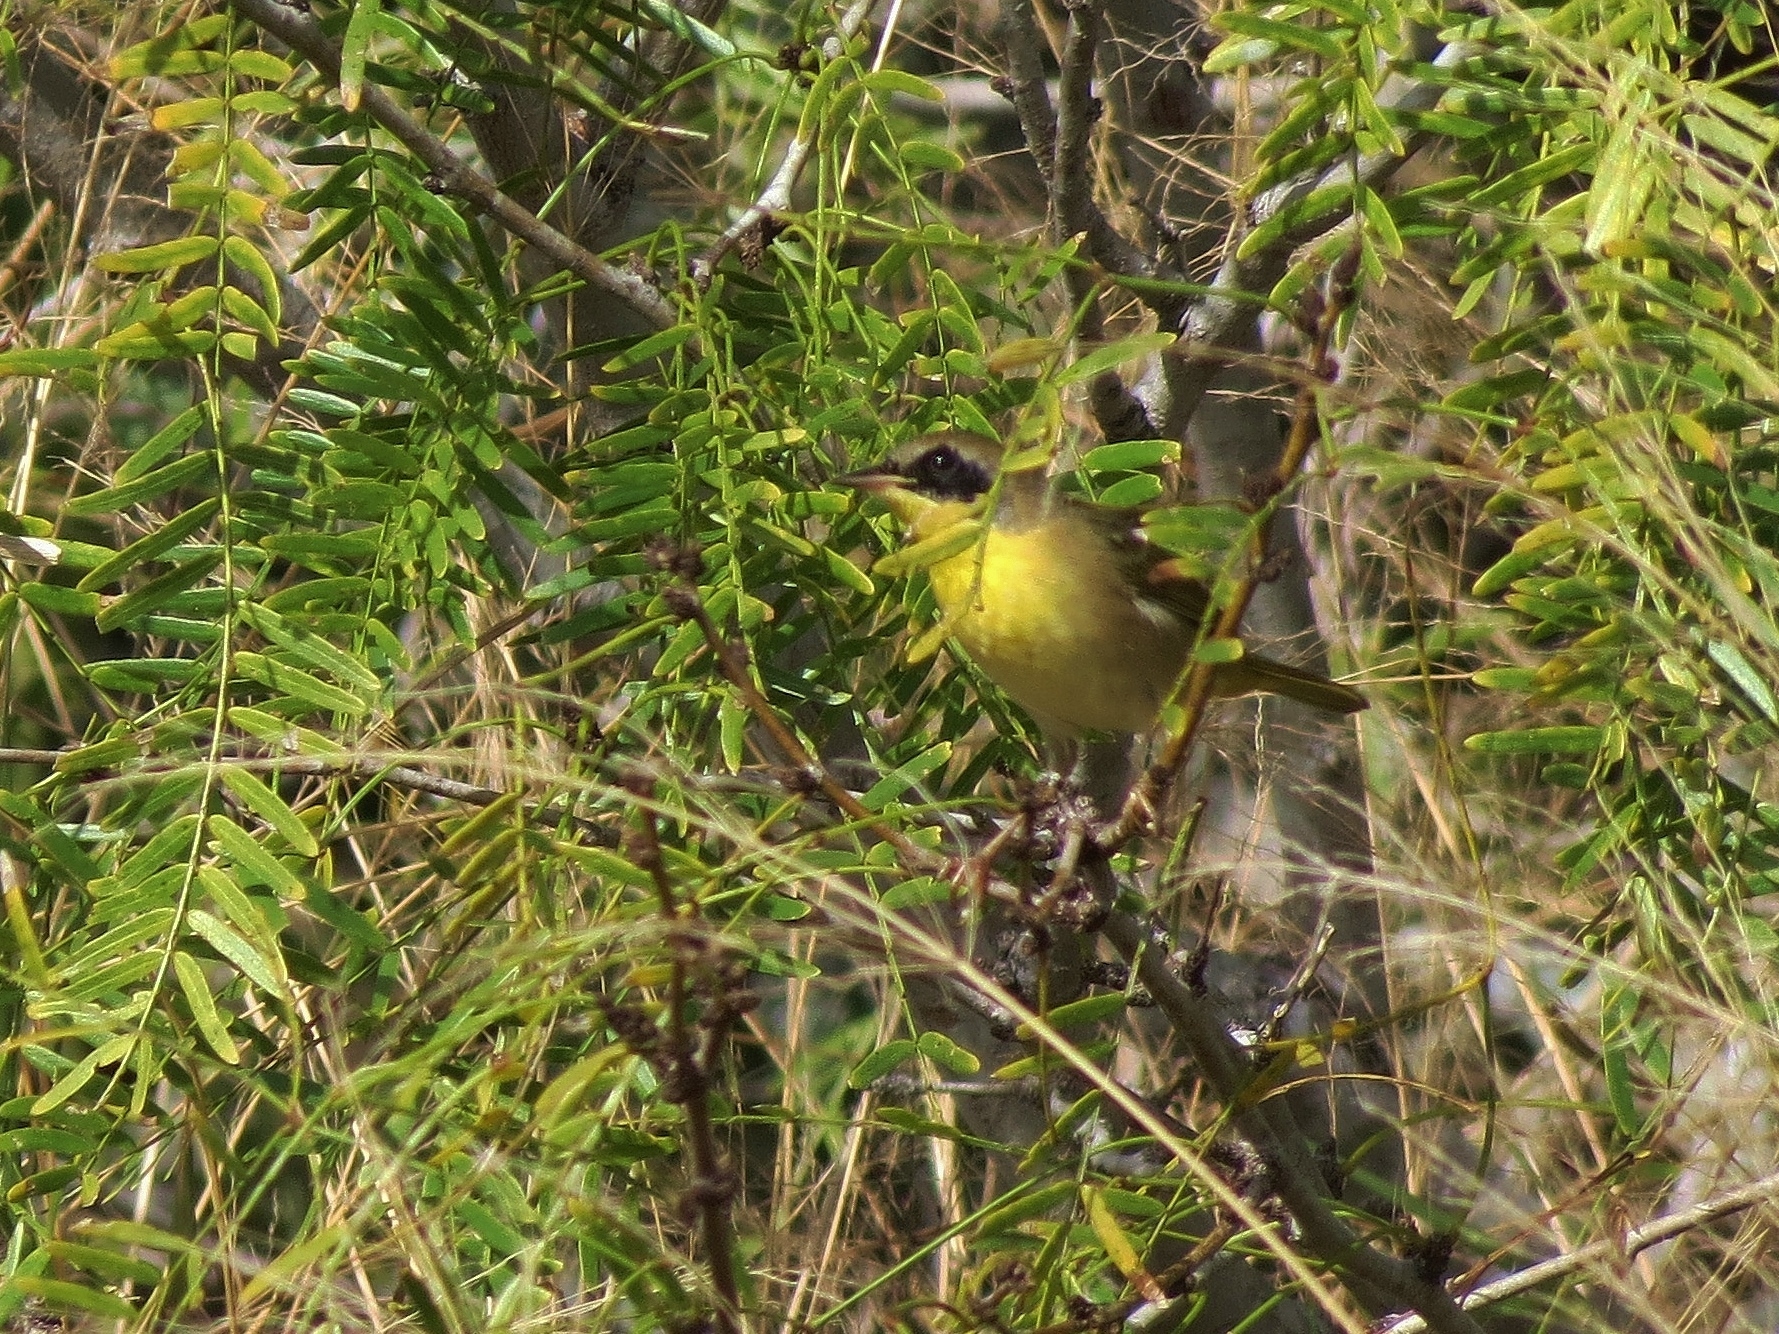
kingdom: Animalia
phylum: Chordata
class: Aves
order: Passeriformes
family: Parulidae
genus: Geothlypis
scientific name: Geothlypis trichas
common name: Common yellowthroat
